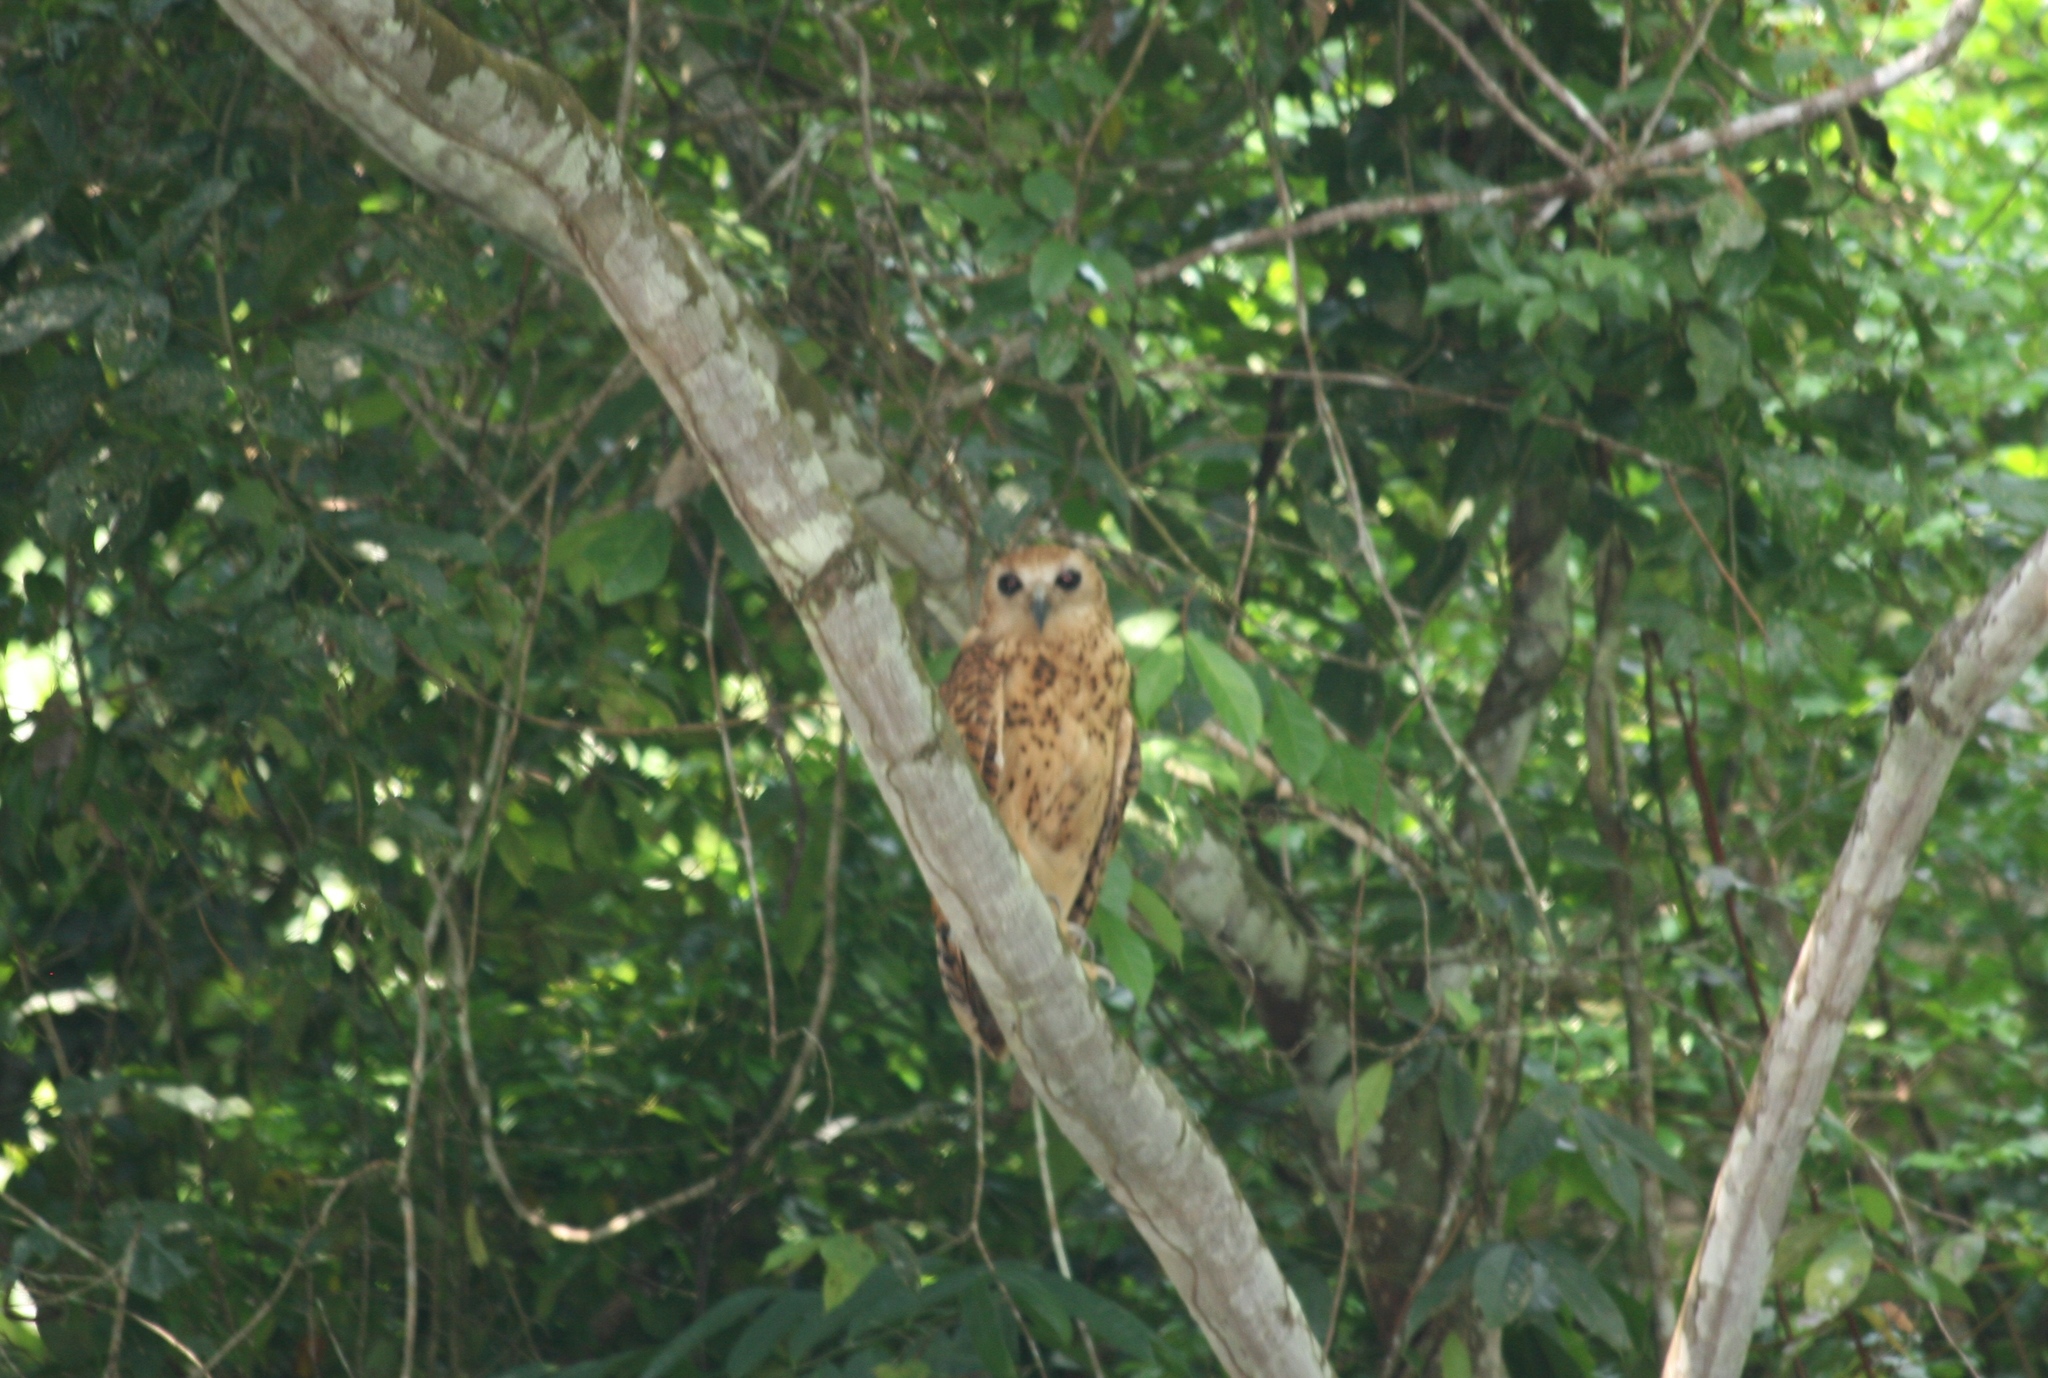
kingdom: Animalia
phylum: Chordata
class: Aves
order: Strigiformes
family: Strigidae
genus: Scotopelia
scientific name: Scotopelia peli
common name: Pel's fishing owl
